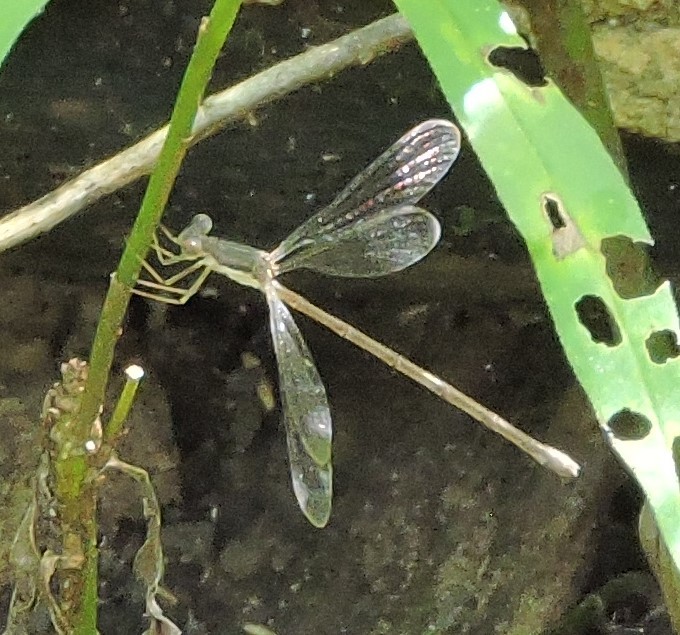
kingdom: Animalia
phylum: Arthropoda
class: Insecta
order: Odonata
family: Lestidae
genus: Lestes
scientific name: Lestes rectangularis
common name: Slender spreadwing
